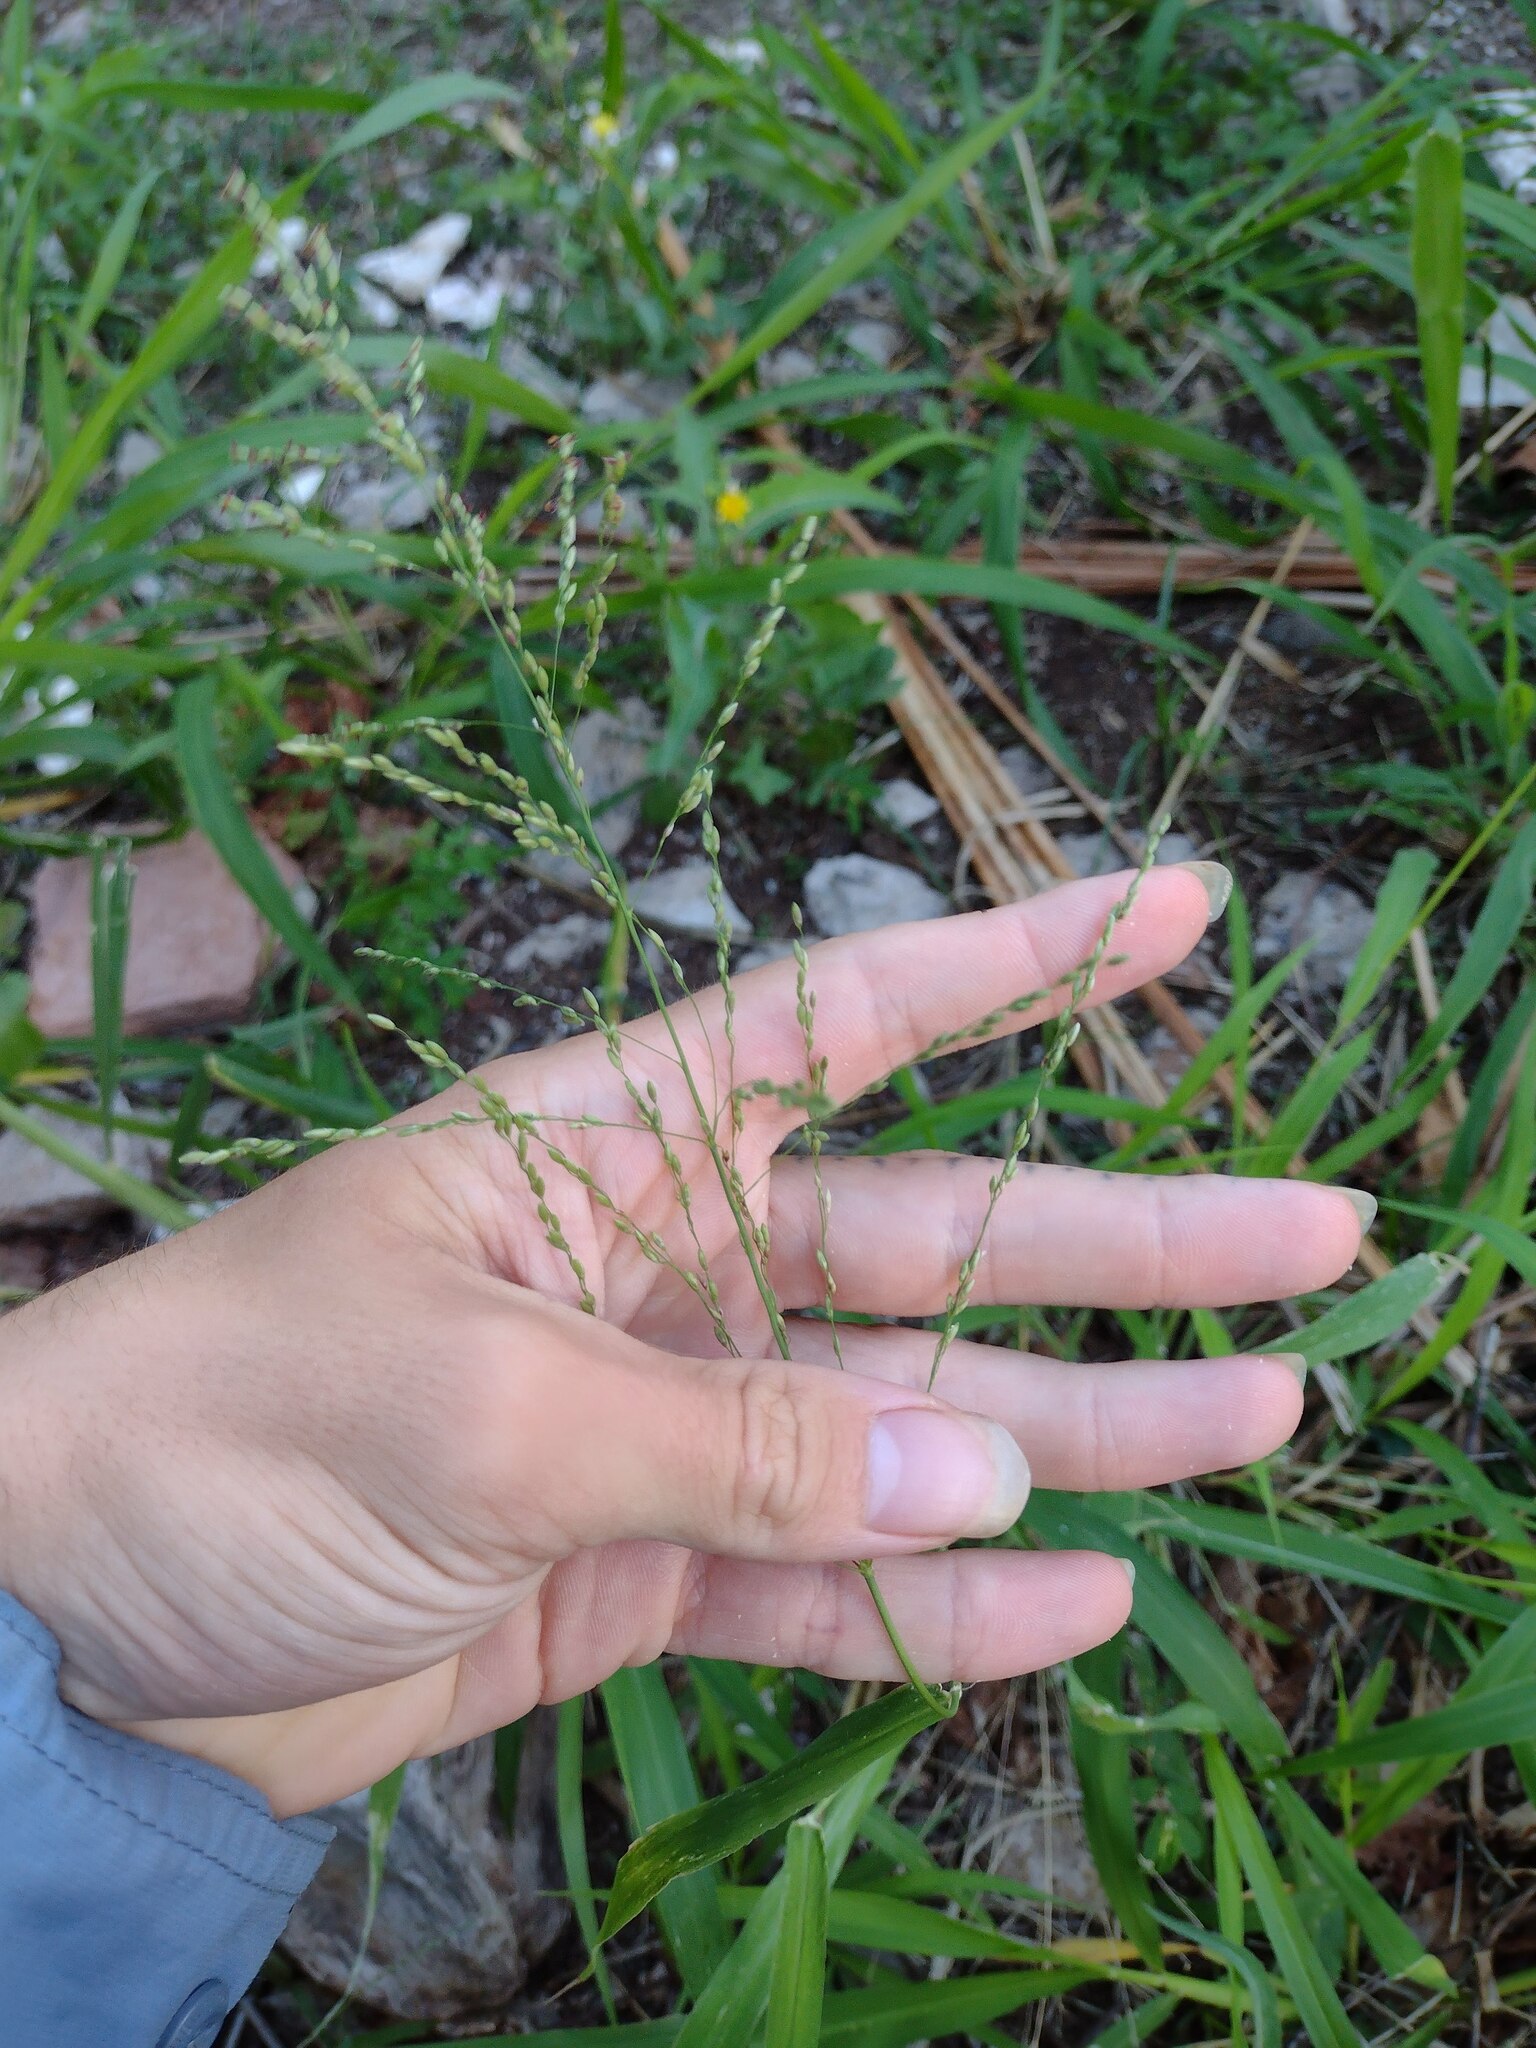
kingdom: Plantae
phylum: Tracheophyta
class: Liliopsida
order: Poales
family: Poaceae
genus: Megathyrsus
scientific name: Megathyrsus maximus
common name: Guineagrass
